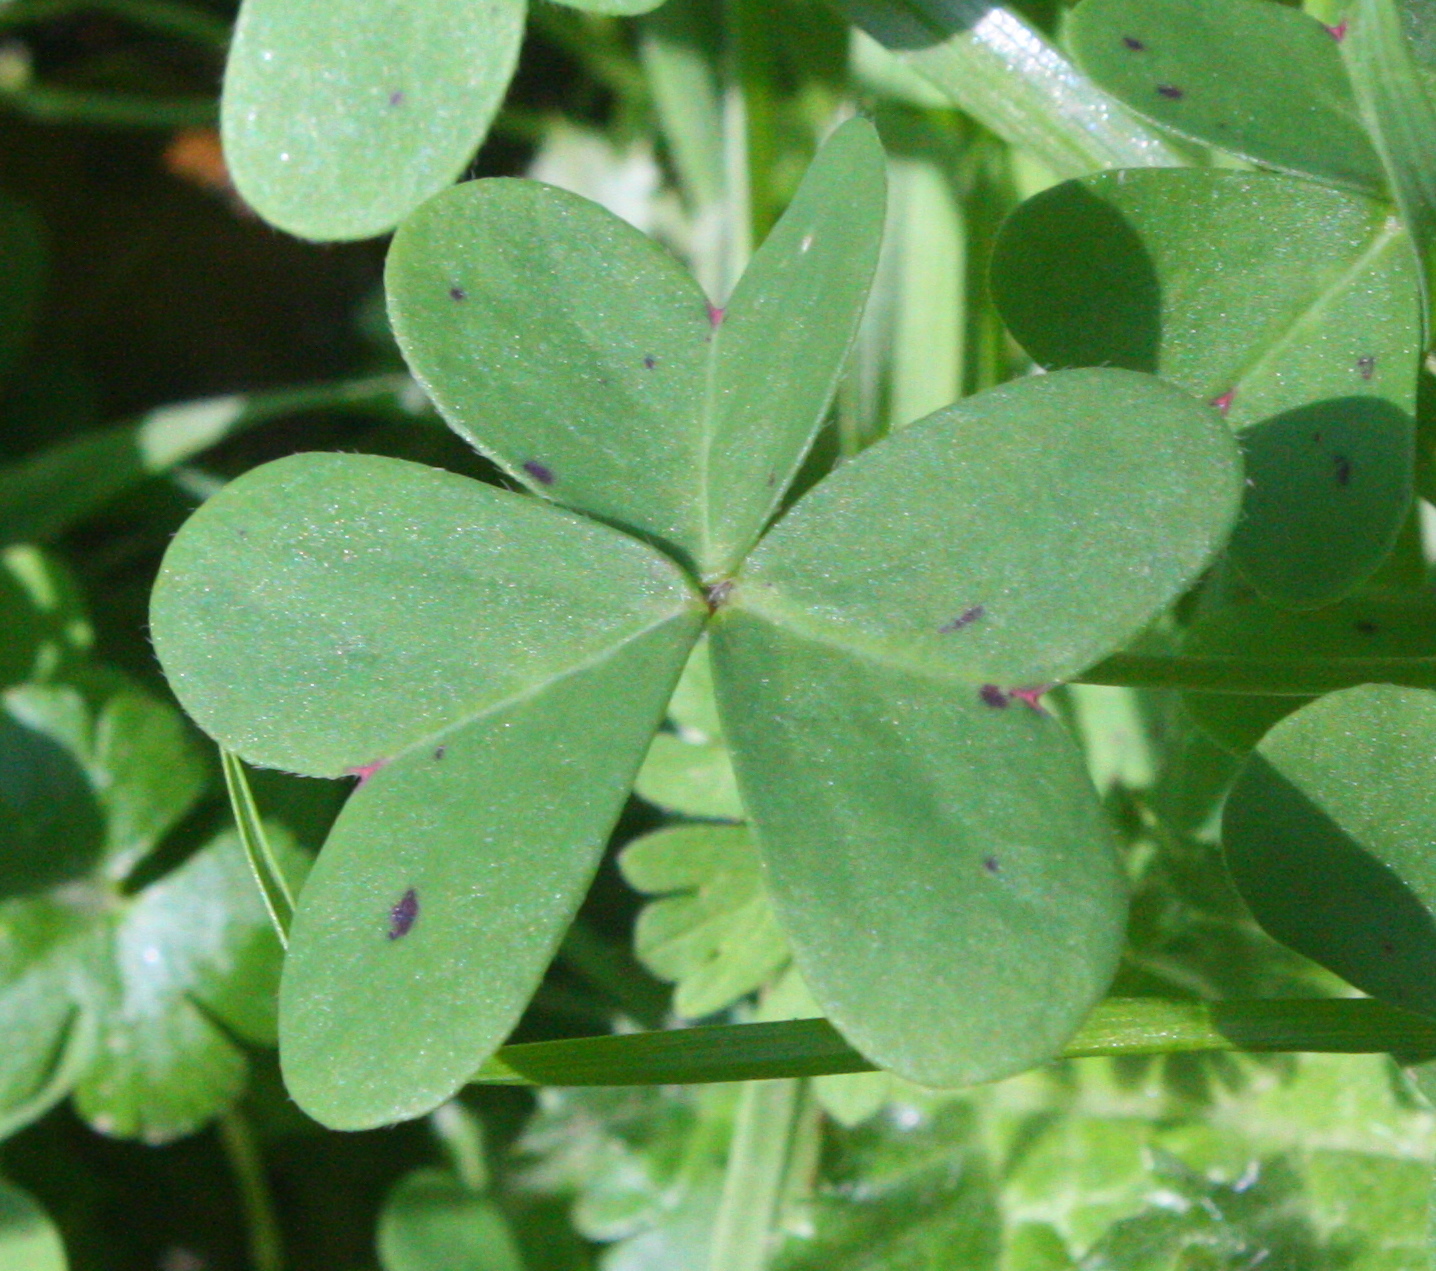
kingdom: Plantae
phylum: Tracheophyta
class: Magnoliopsida
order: Oxalidales
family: Oxalidaceae
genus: Oxalis
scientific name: Oxalis pes-caprae
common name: Bermuda-buttercup
